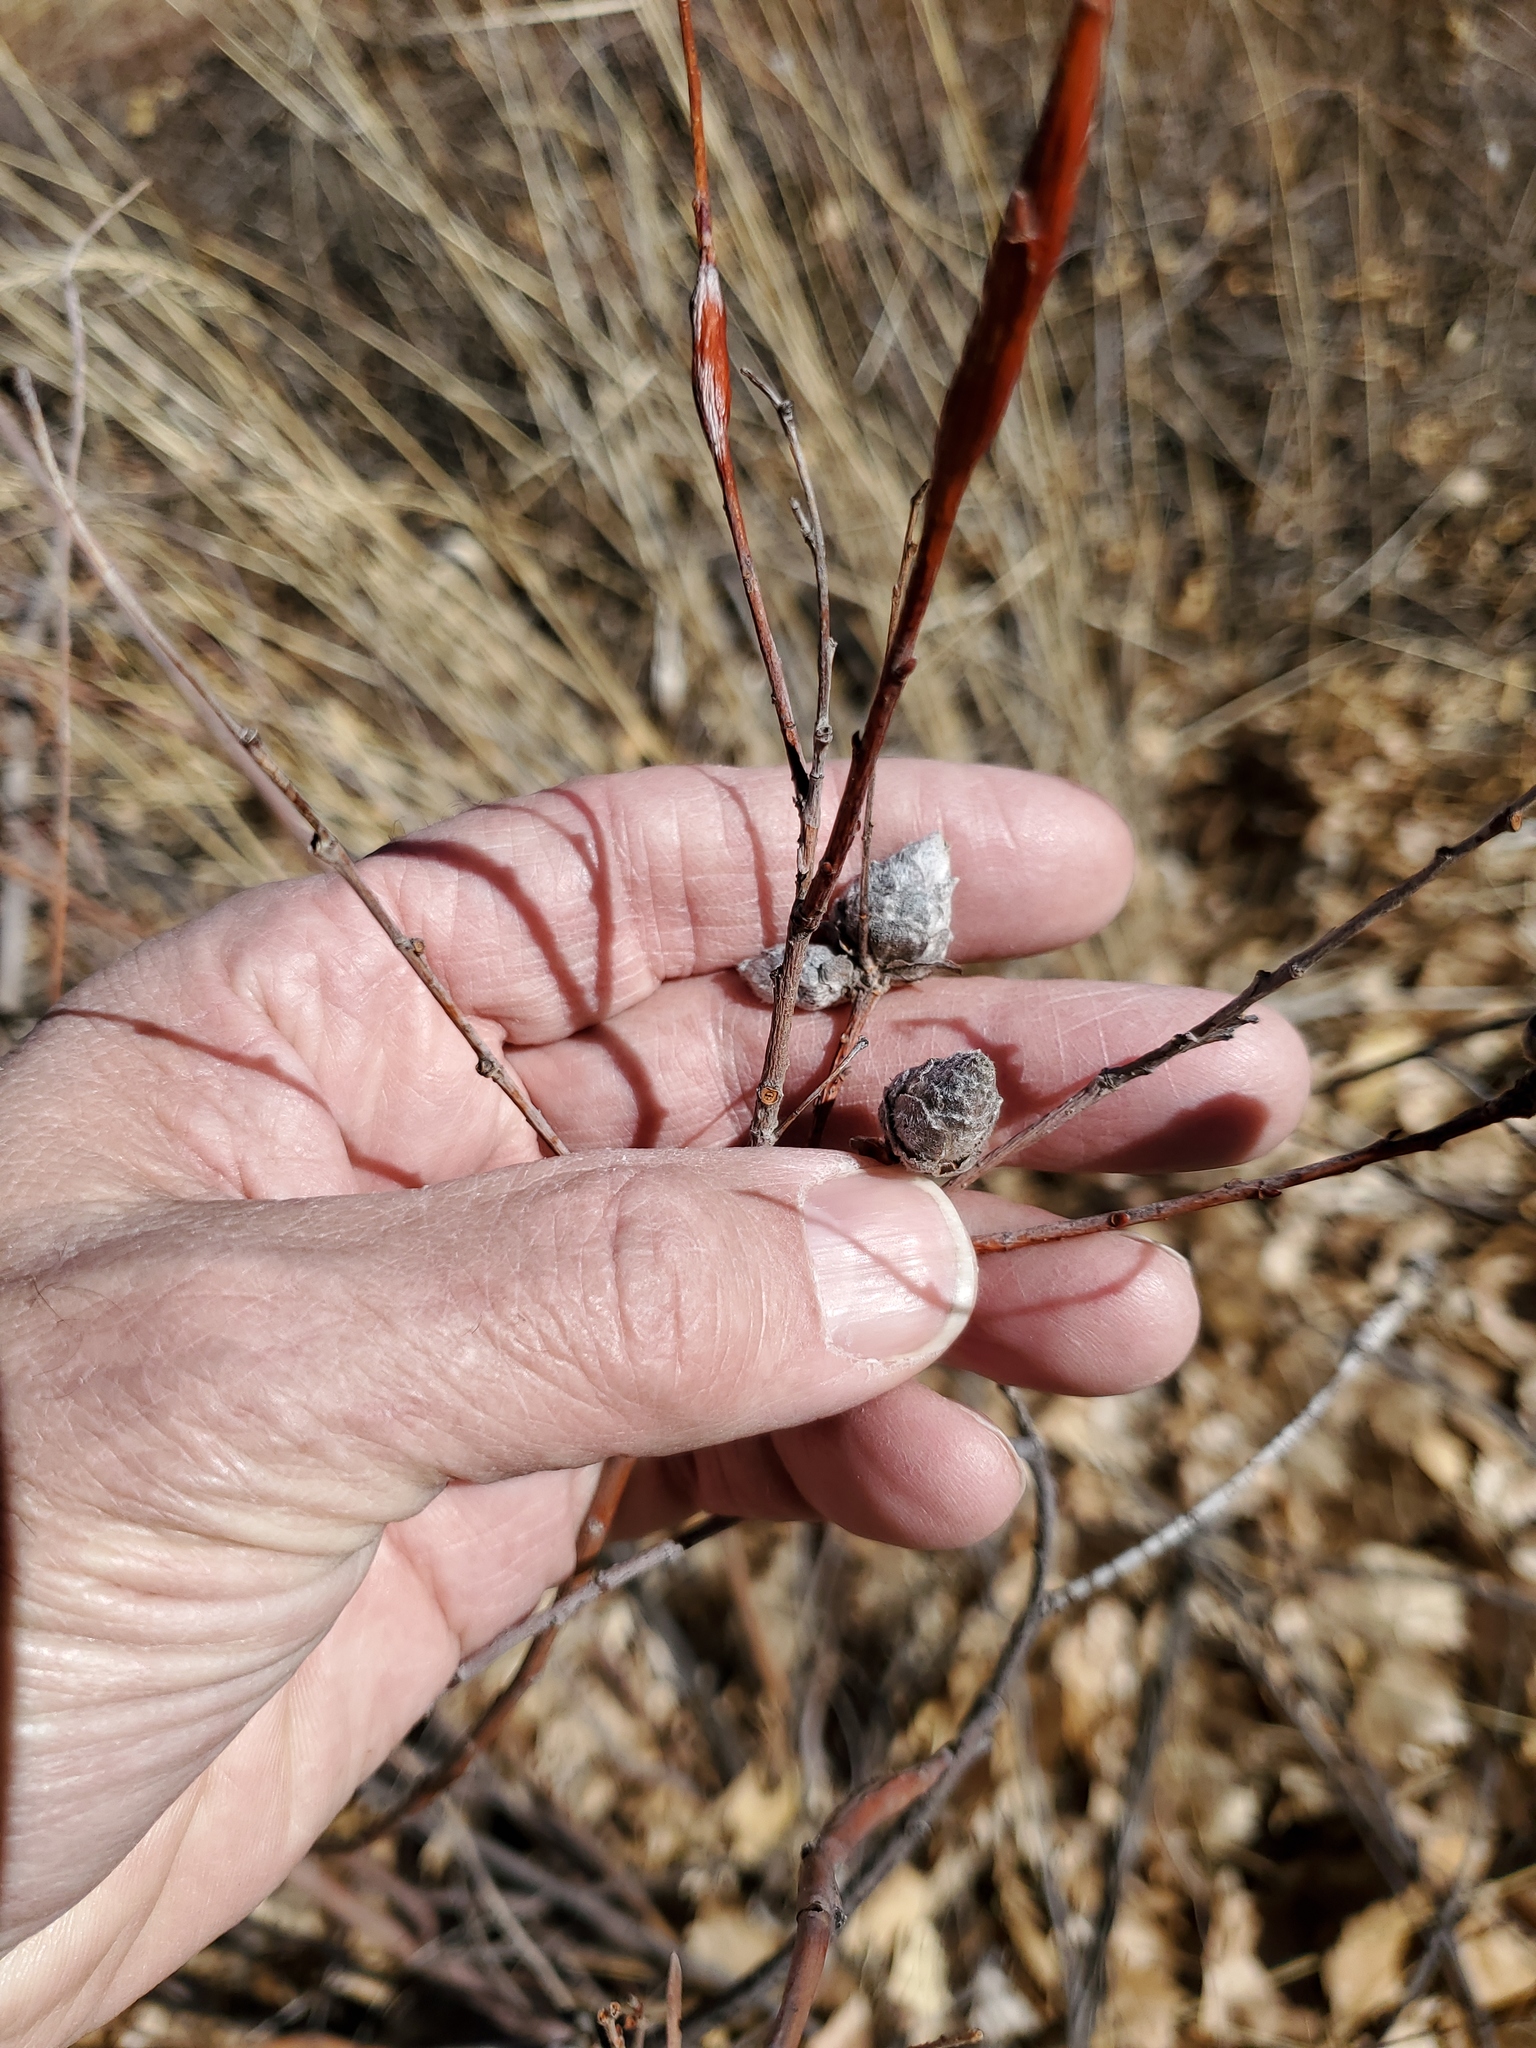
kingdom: Animalia
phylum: Arthropoda
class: Insecta
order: Diptera
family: Cecidomyiidae
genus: Rabdophaga
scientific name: Rabdophaga strobiloides
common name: Willow pinecone gall midge
